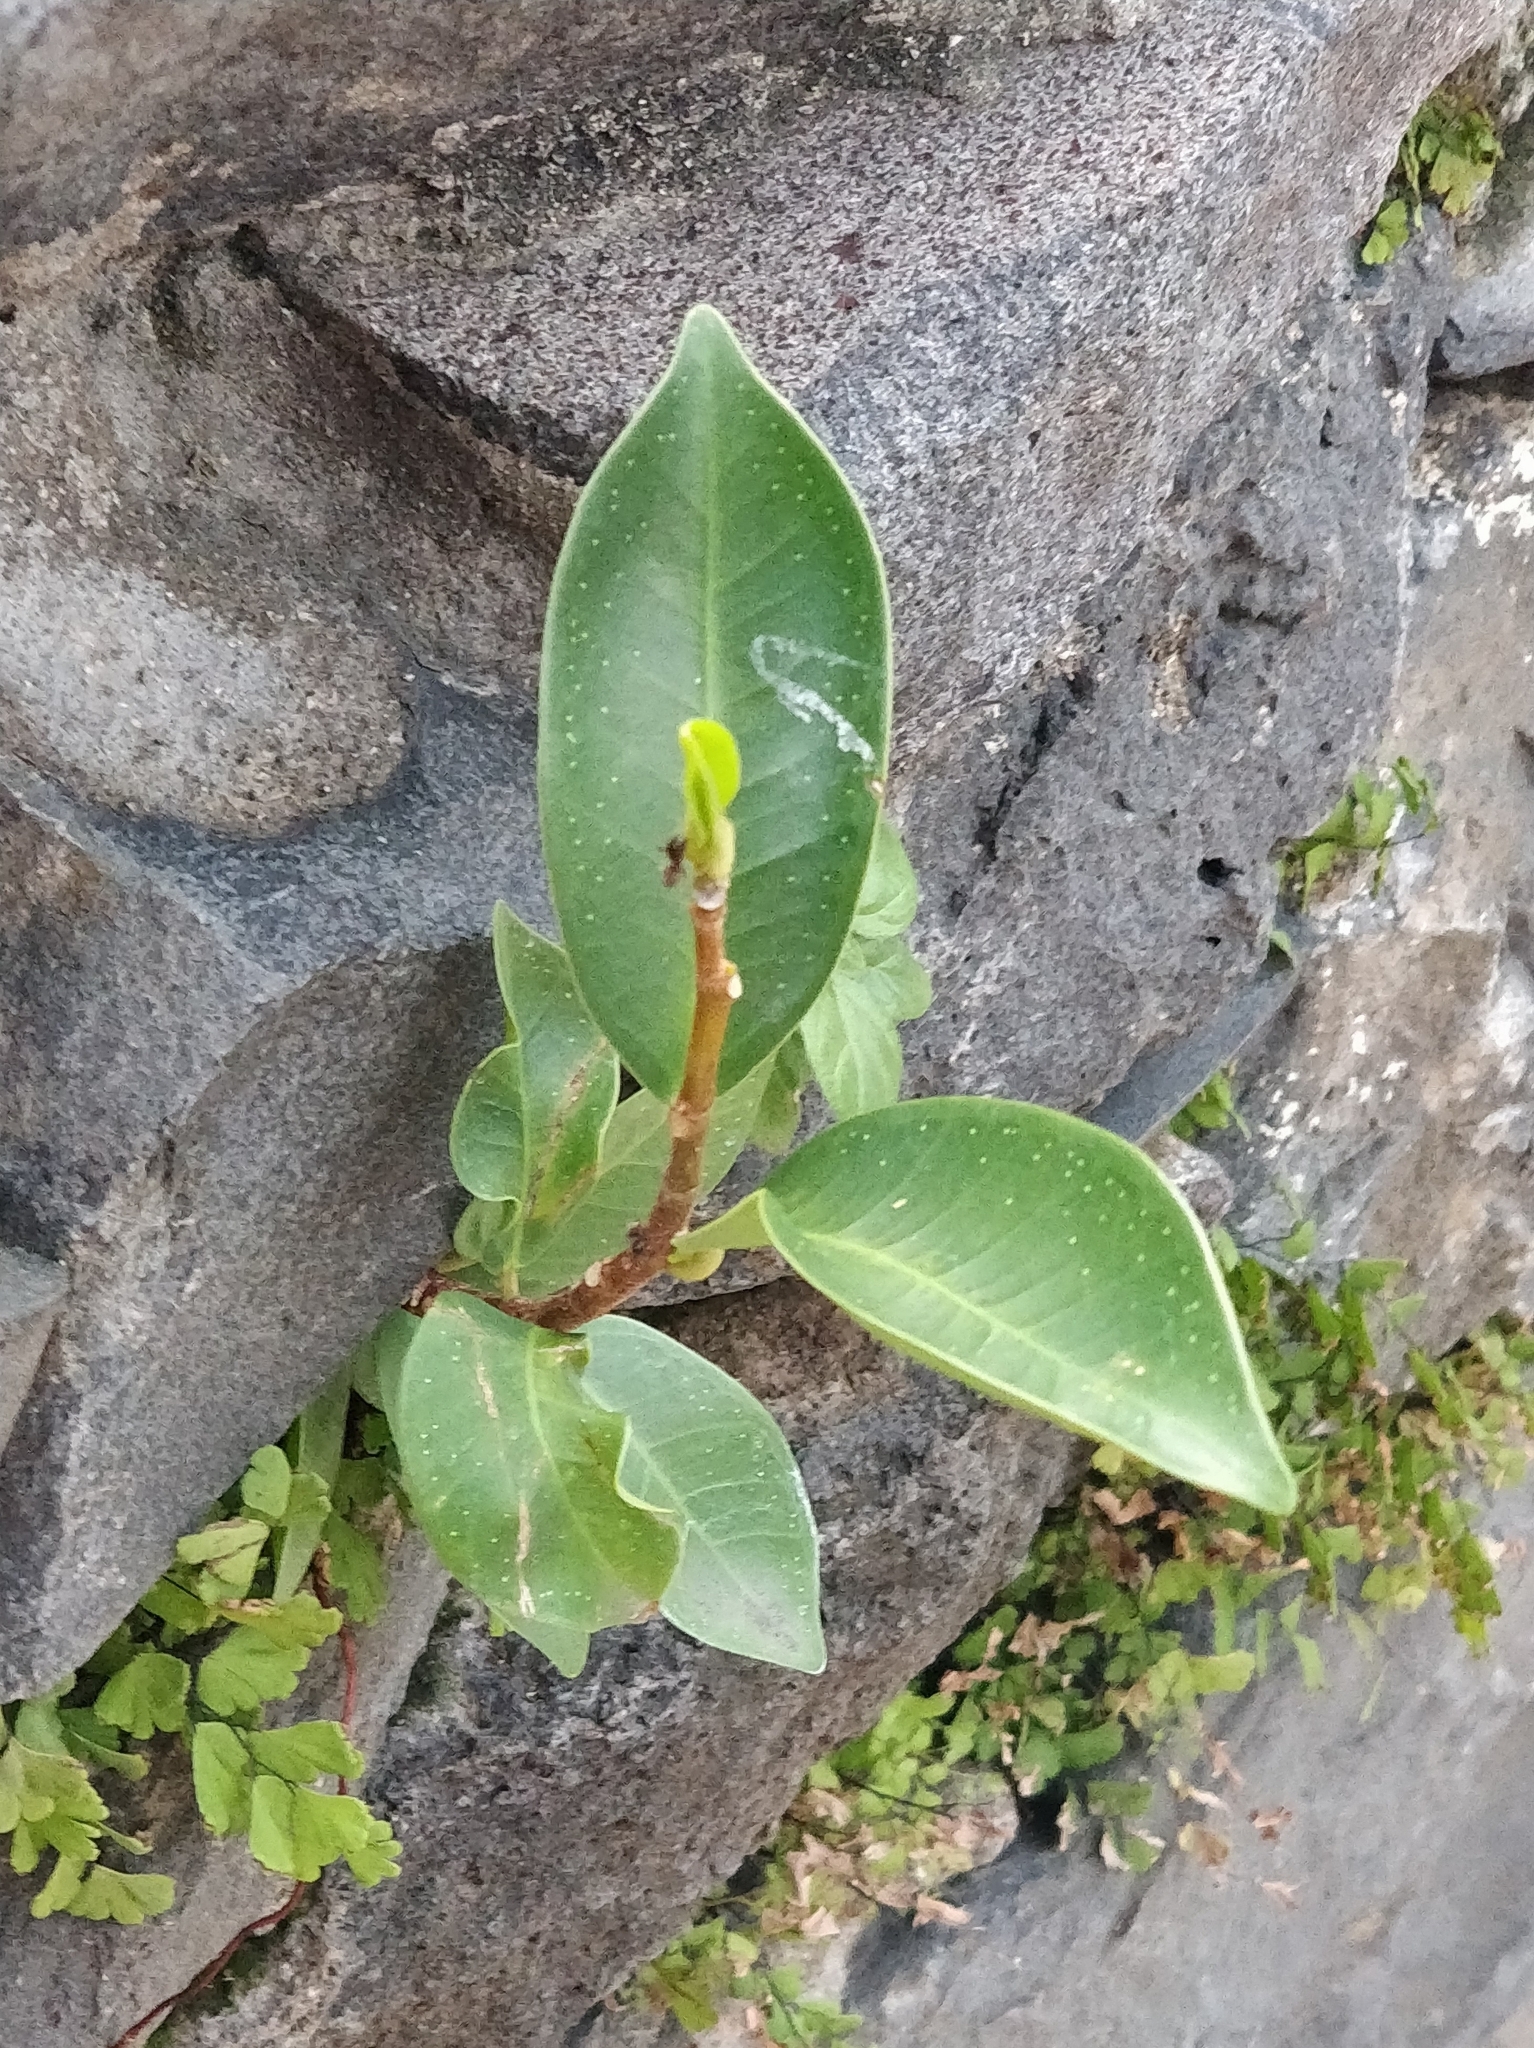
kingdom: Plantae
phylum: Tracheophyta
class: Magnoliopsida
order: Rosales
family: Moraceae
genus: Ficus
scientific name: Ficus benjamina
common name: Weeping fig
